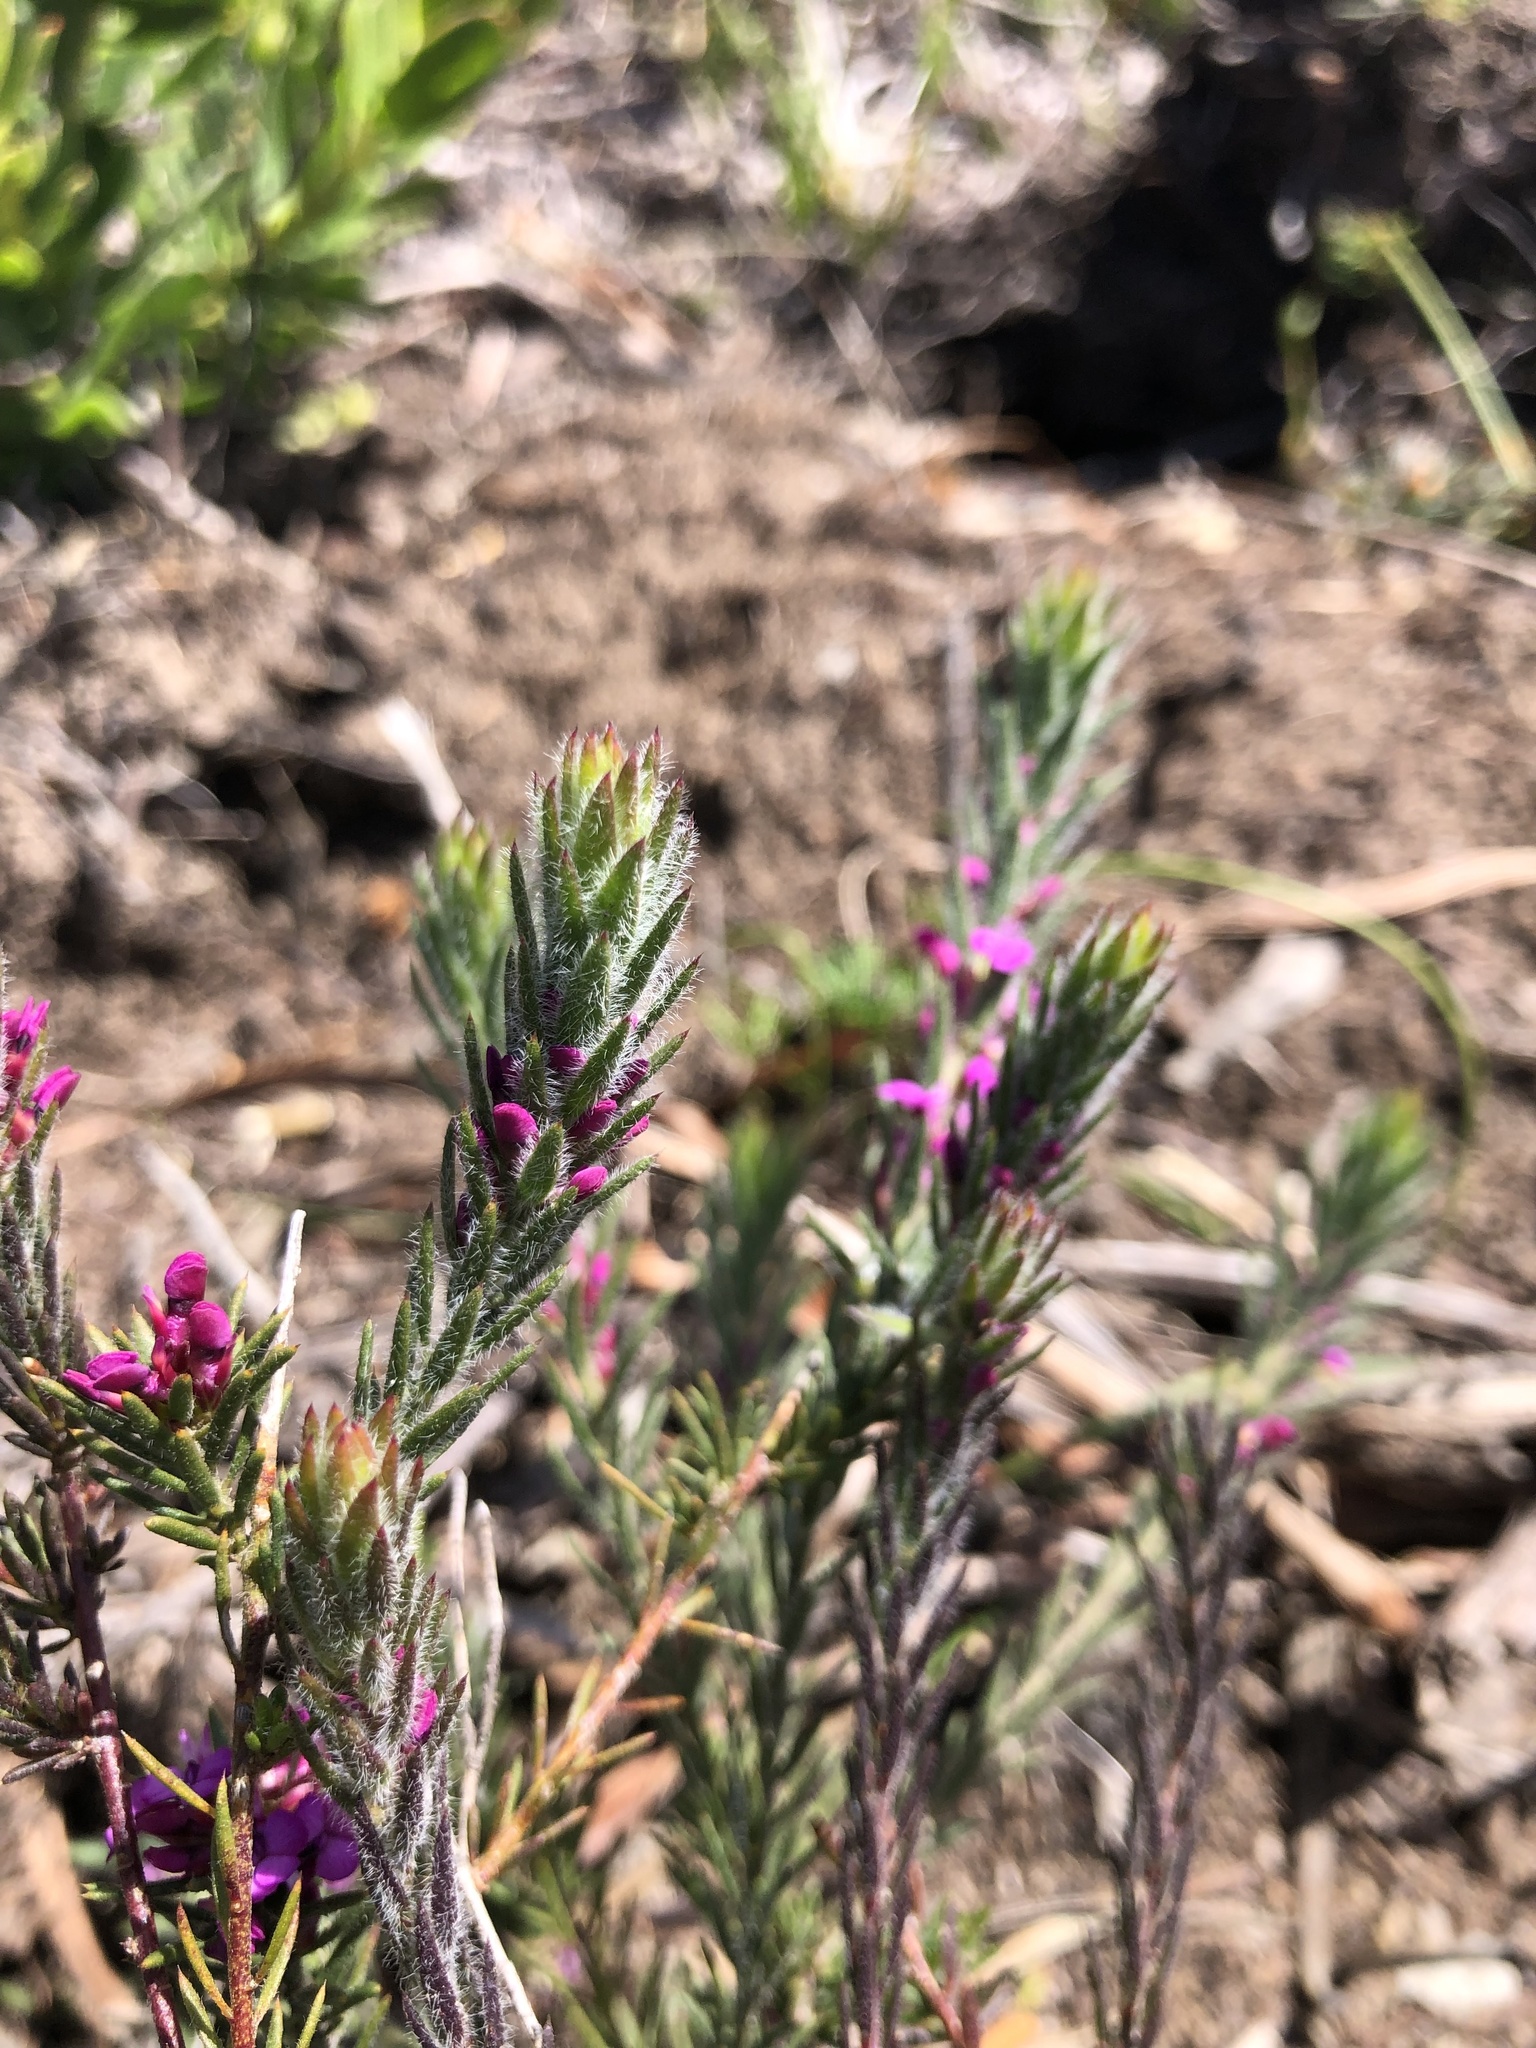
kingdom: Plantae
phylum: Tracheophyta
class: Magnoliopsida
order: Fabales
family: Polygalaceae
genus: Muraltia
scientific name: Muraltia stokoei
